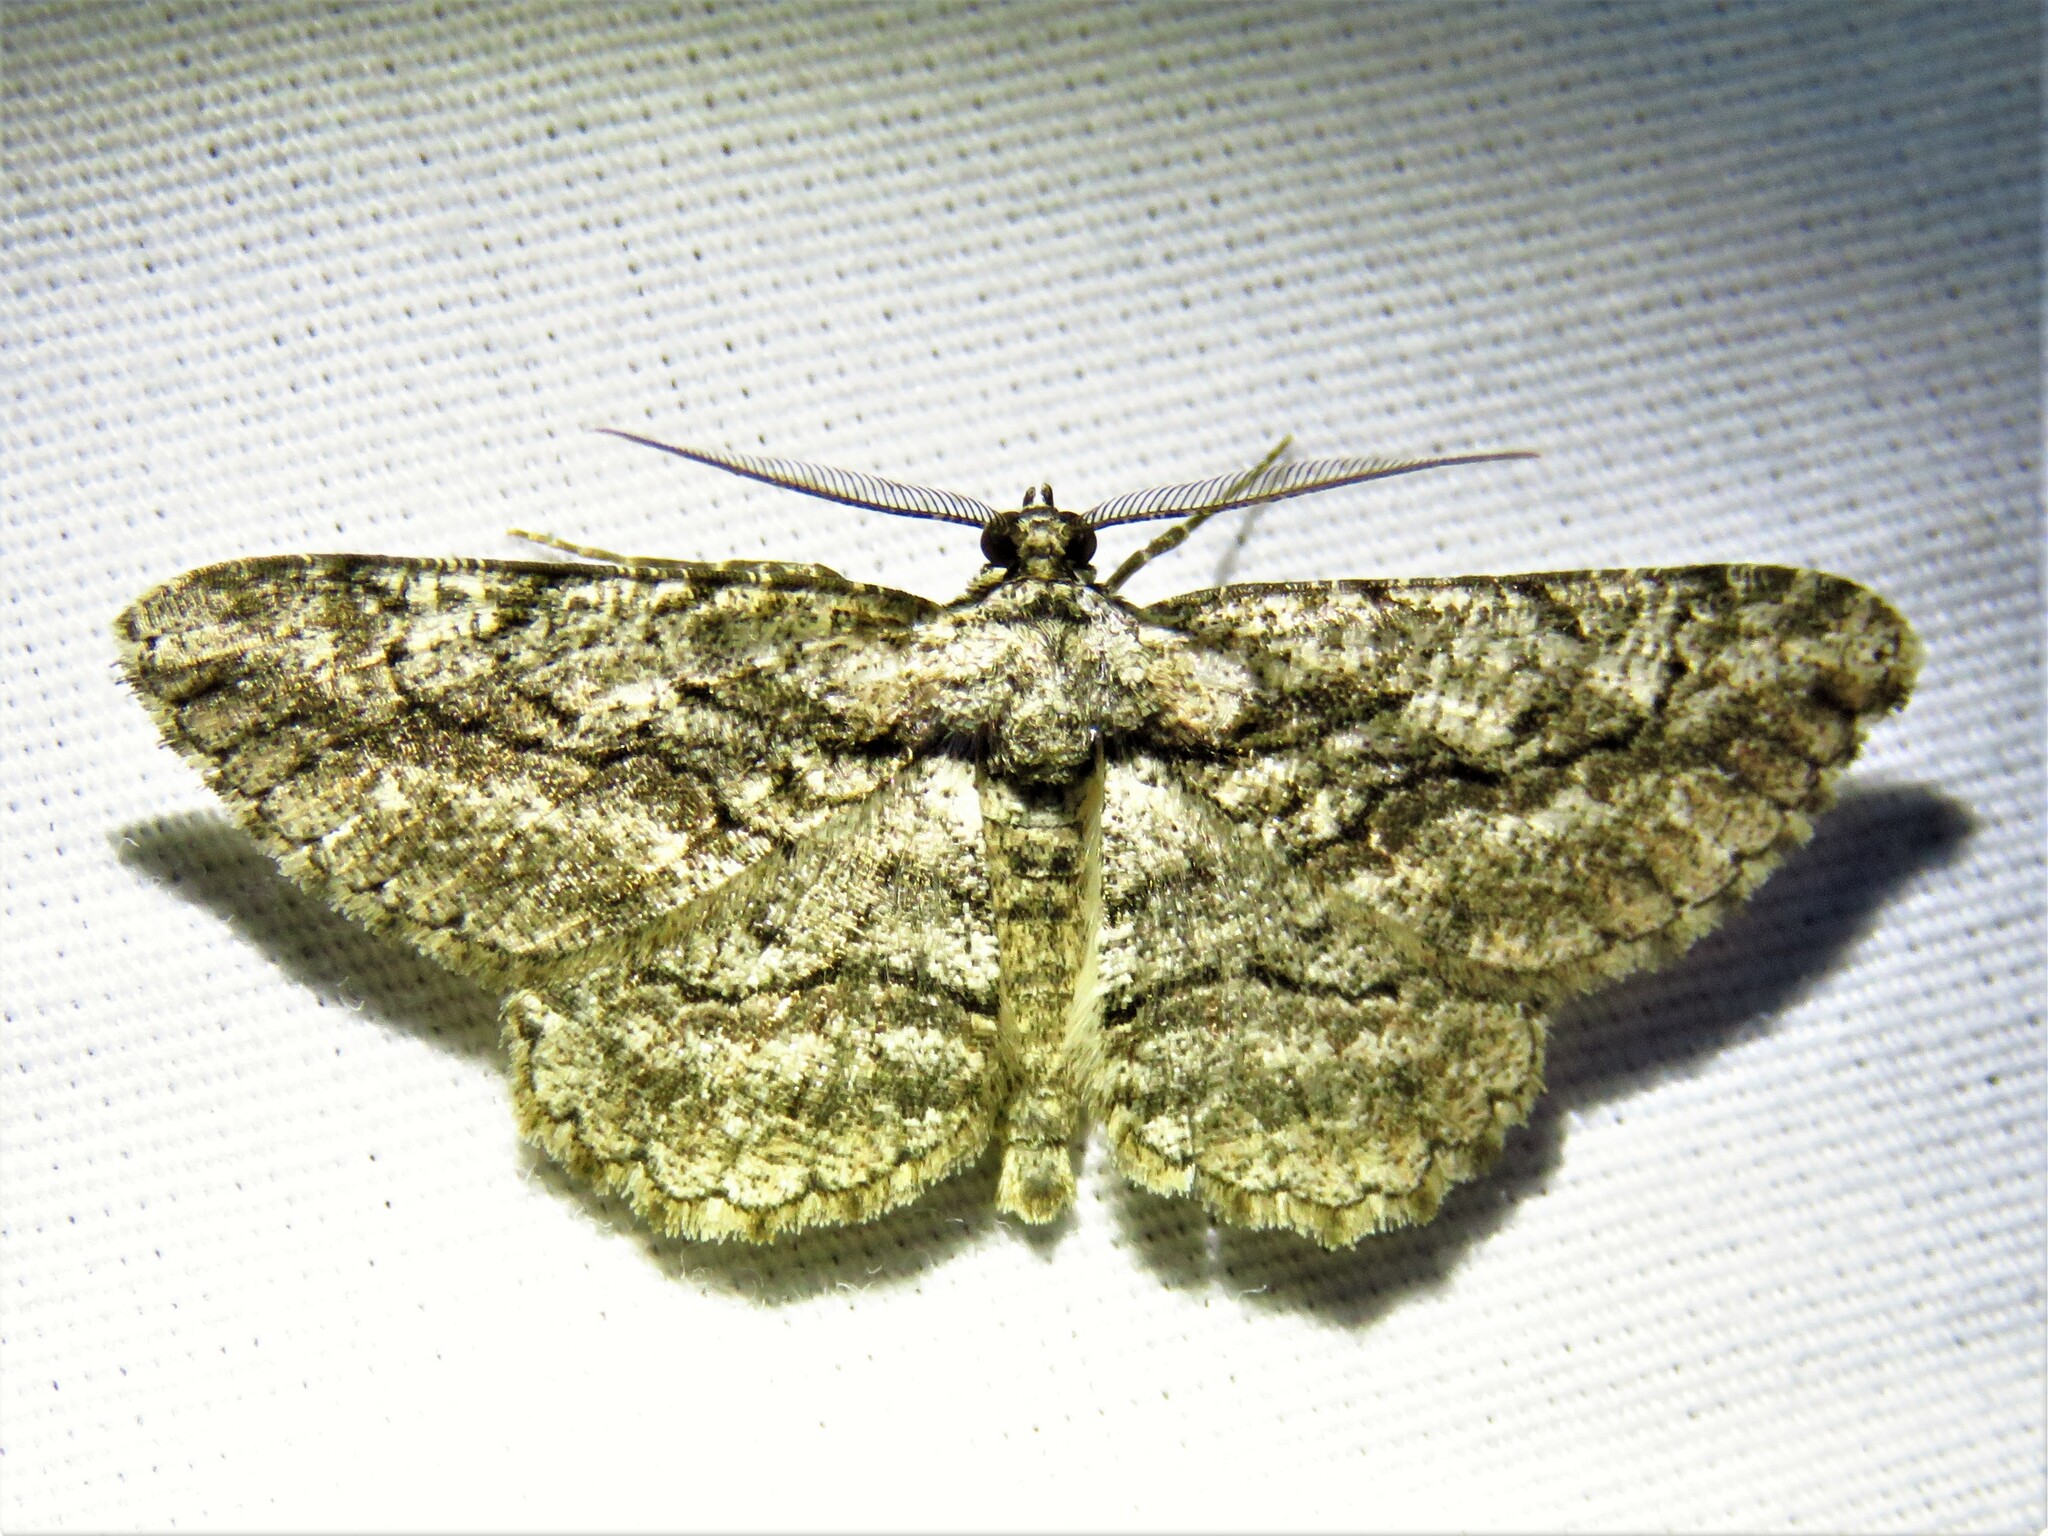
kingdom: Animalia
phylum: Arthropoda
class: Insecta
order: Lepidoptera
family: Geometridae
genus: Anavitrinella
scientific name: Anavitrinella atristrigaria
